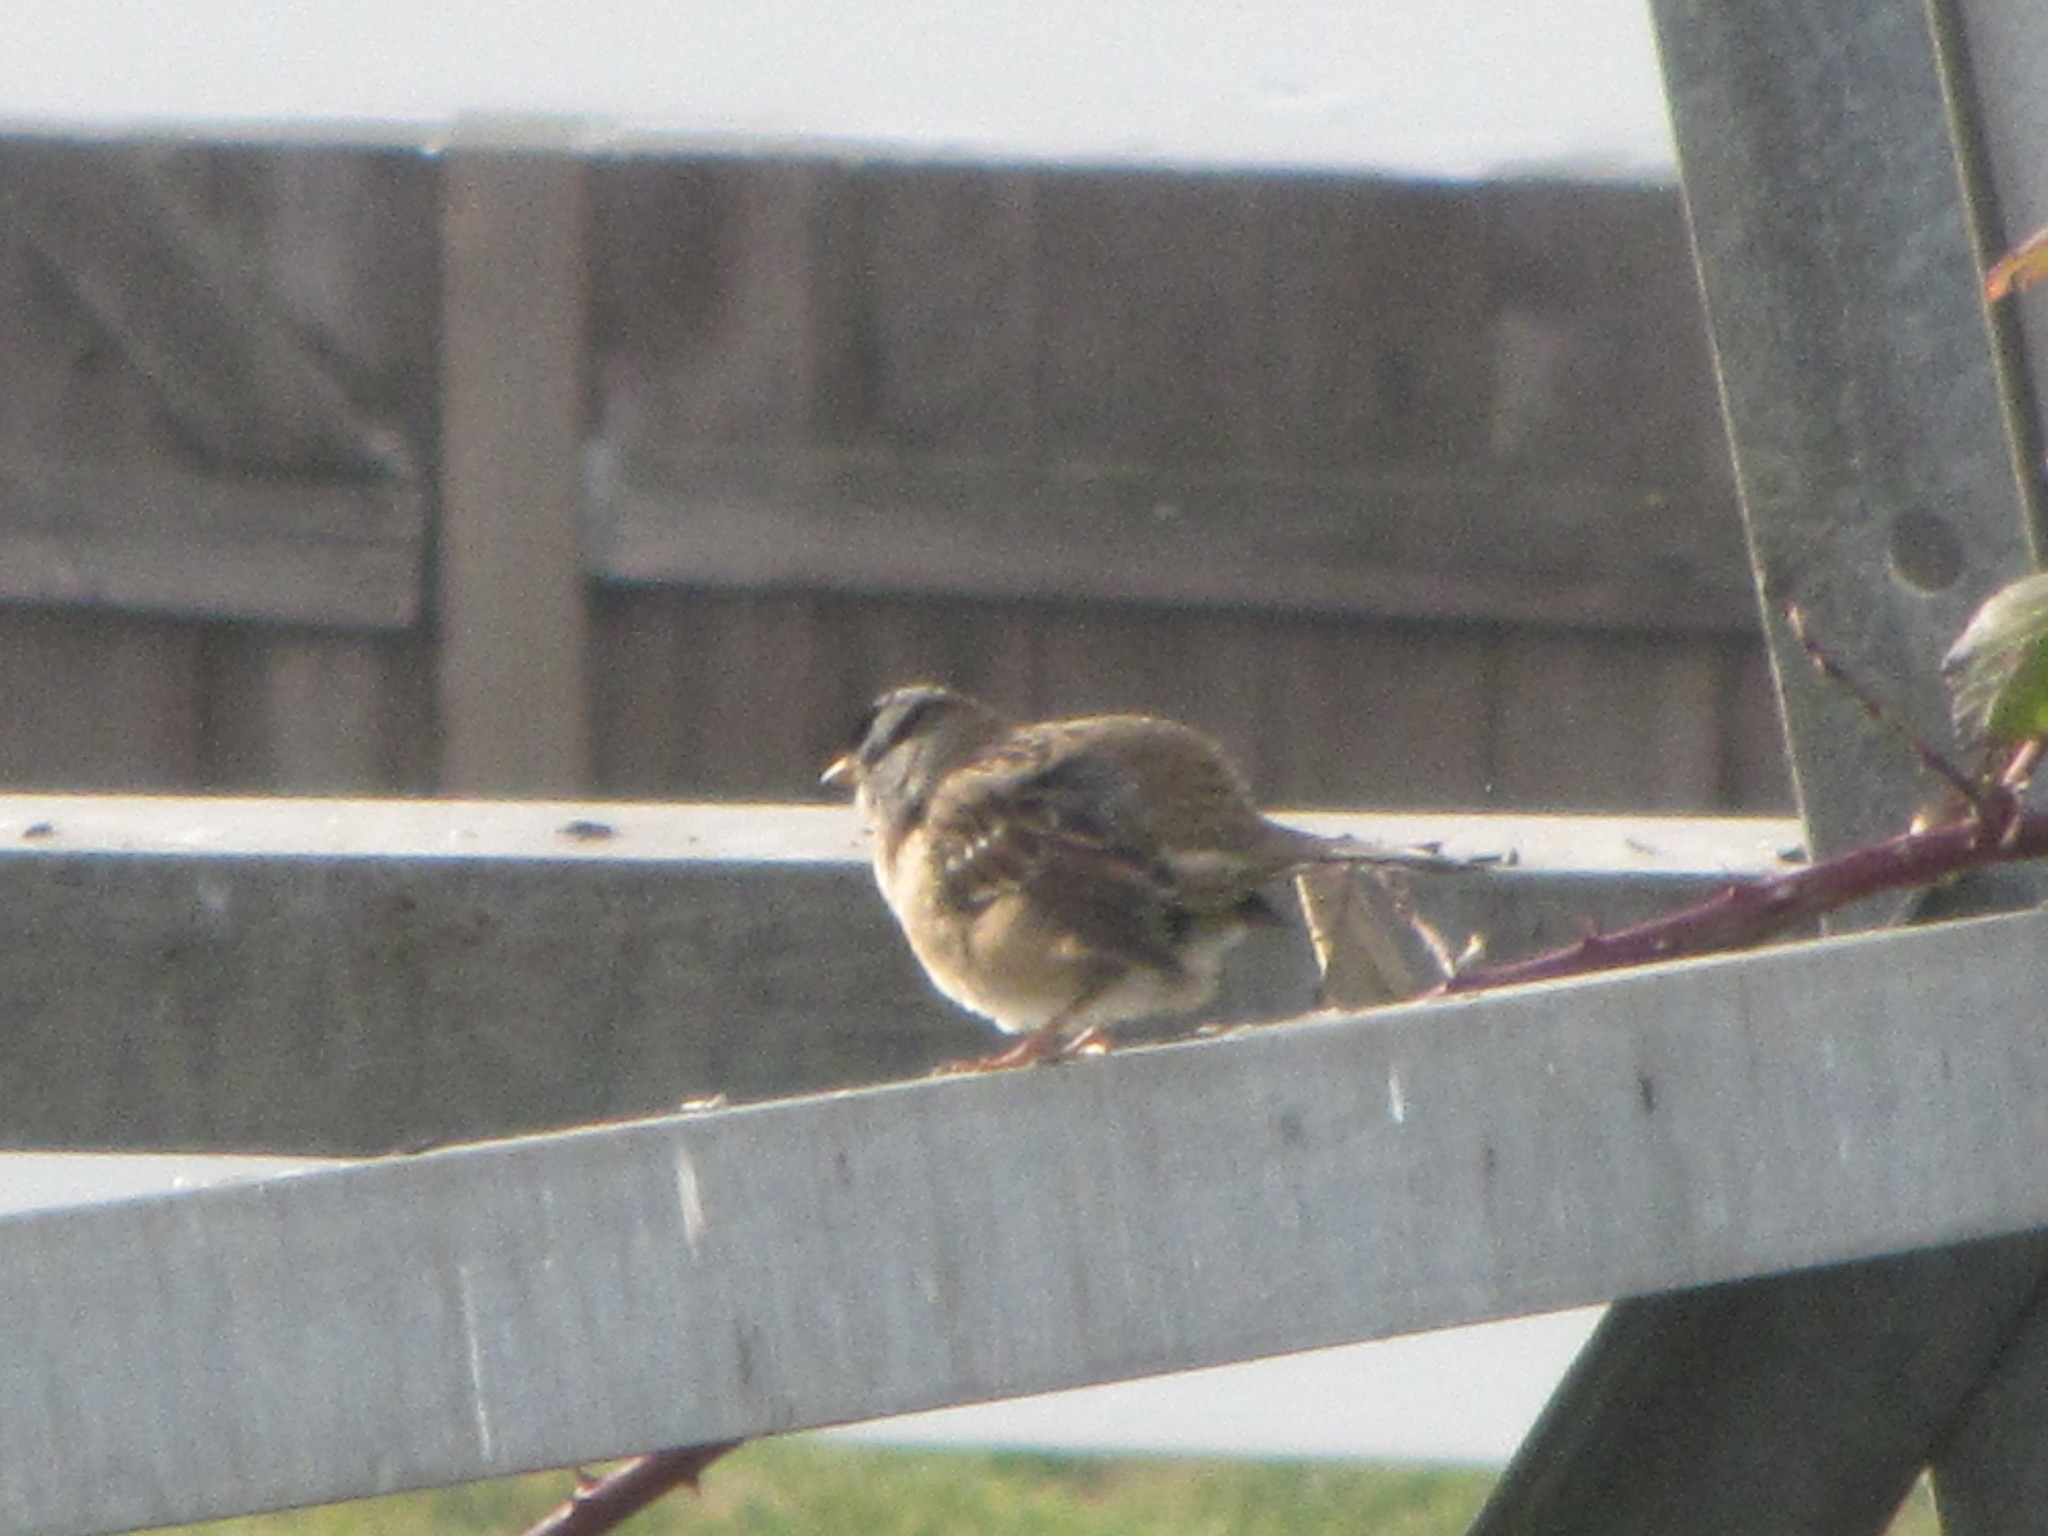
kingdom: Animalia
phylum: Chordata
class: Aves
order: Passeriformes
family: Passerellidae
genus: Zonotrichia
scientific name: Zonotrichia leucophrys
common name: White-crowned sparrow
